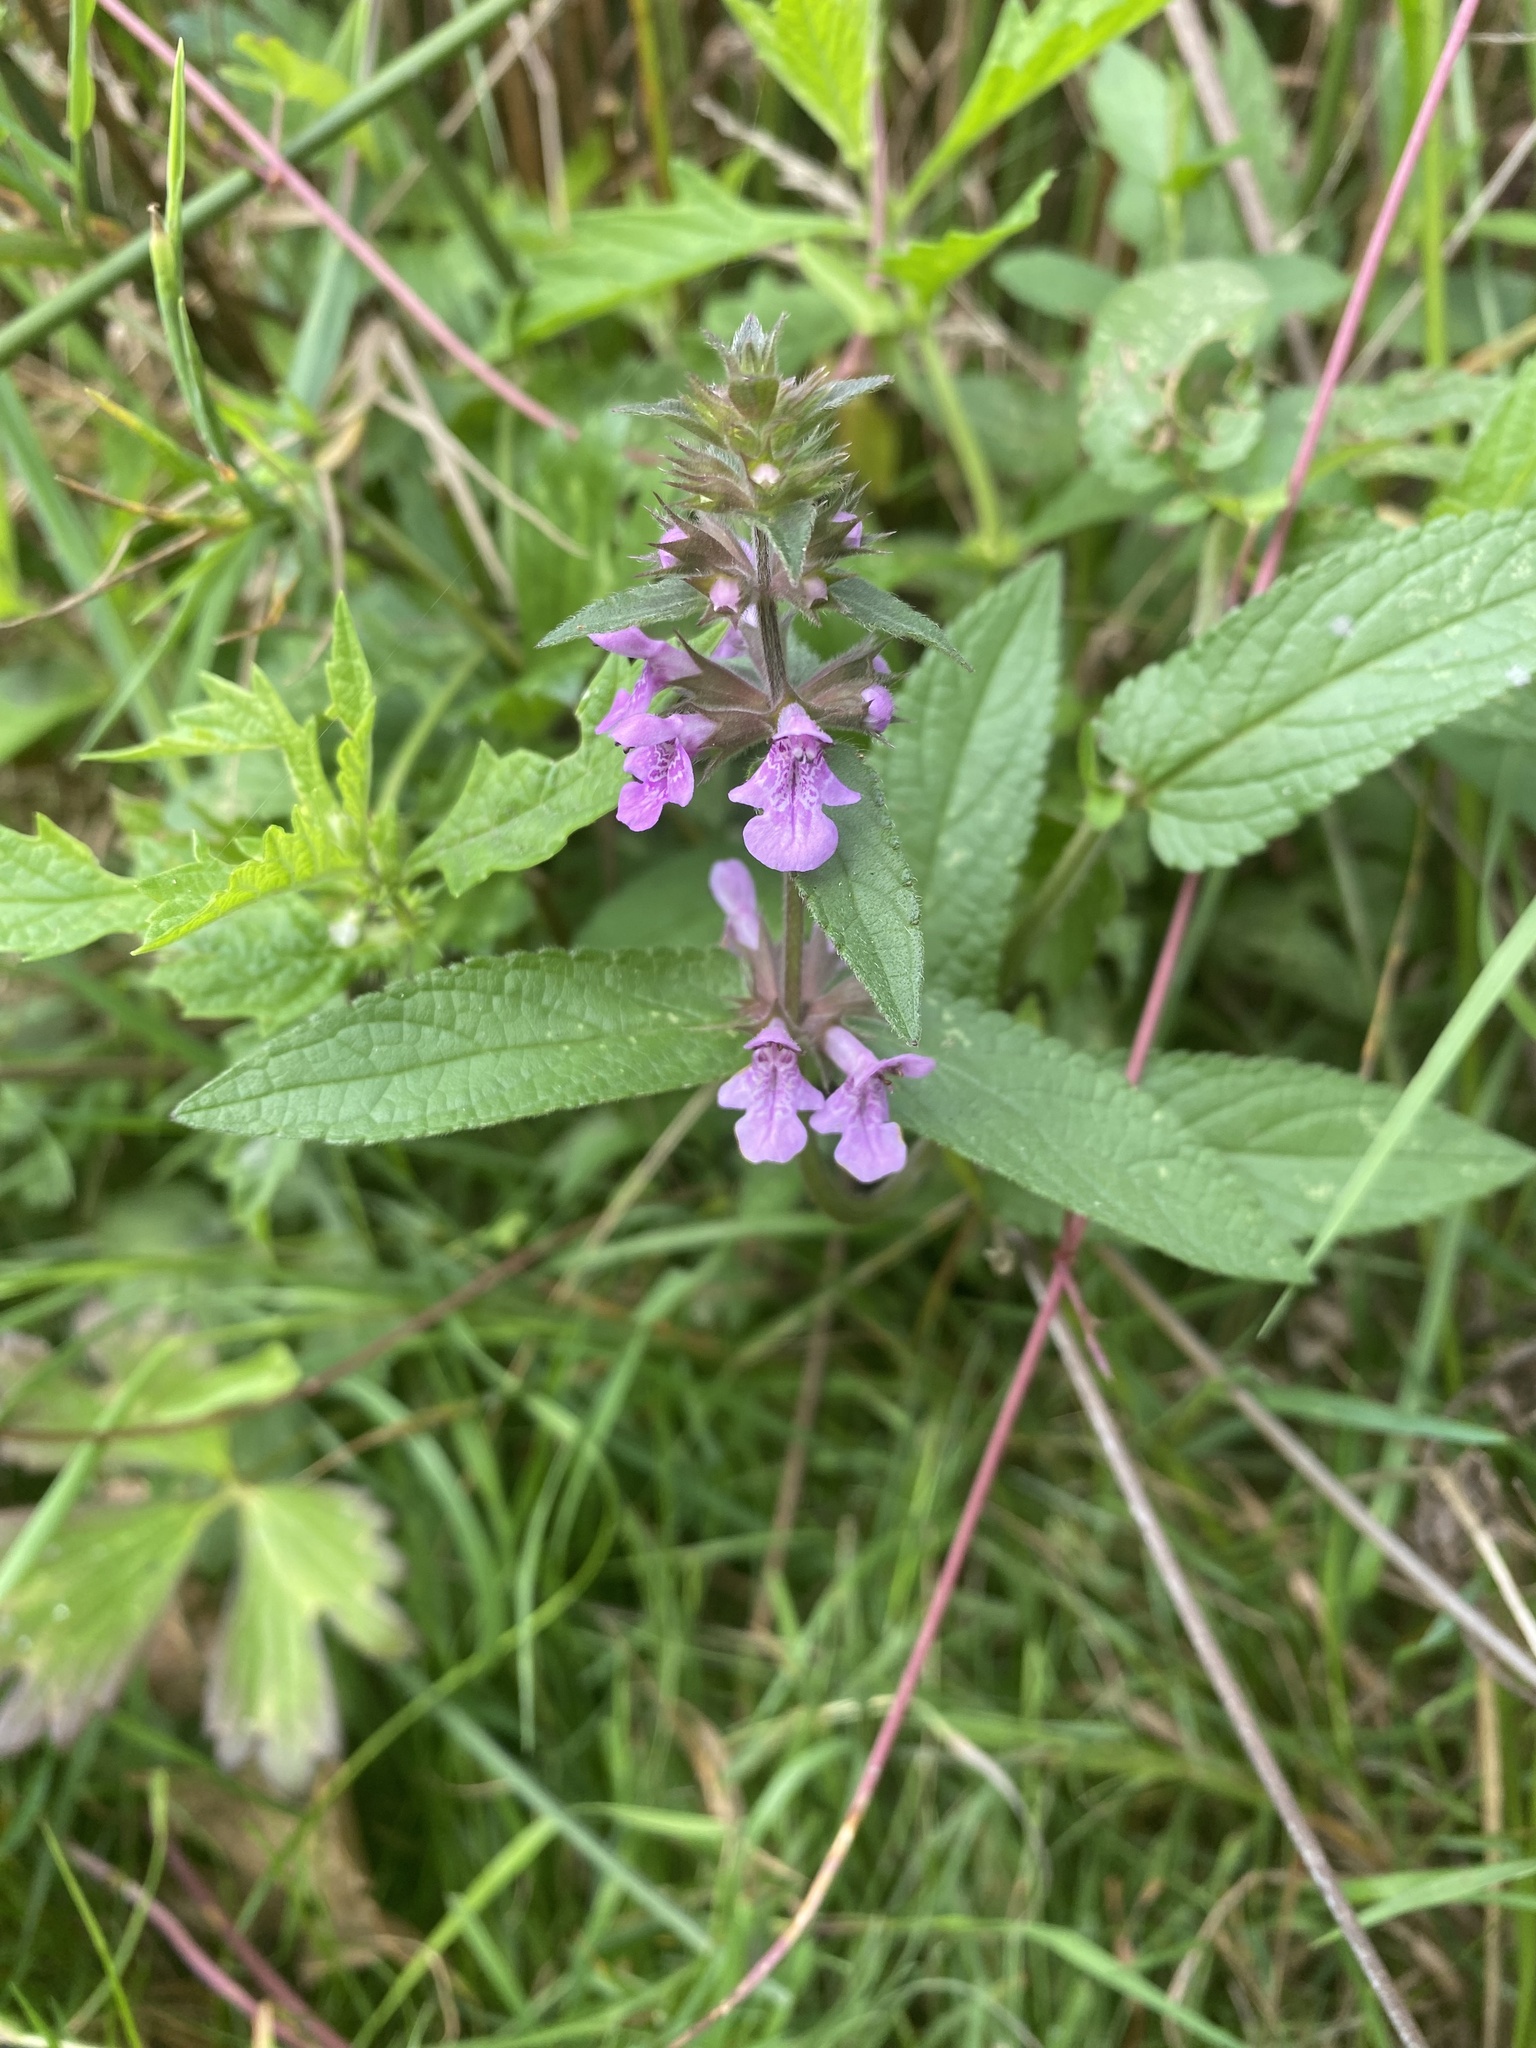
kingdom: Plantae
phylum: Tracheophyta
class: Magnoliopsida
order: Lamiales
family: Lamiaceae
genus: Stachys
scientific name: Stachys palustris
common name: Marsh woundwort
